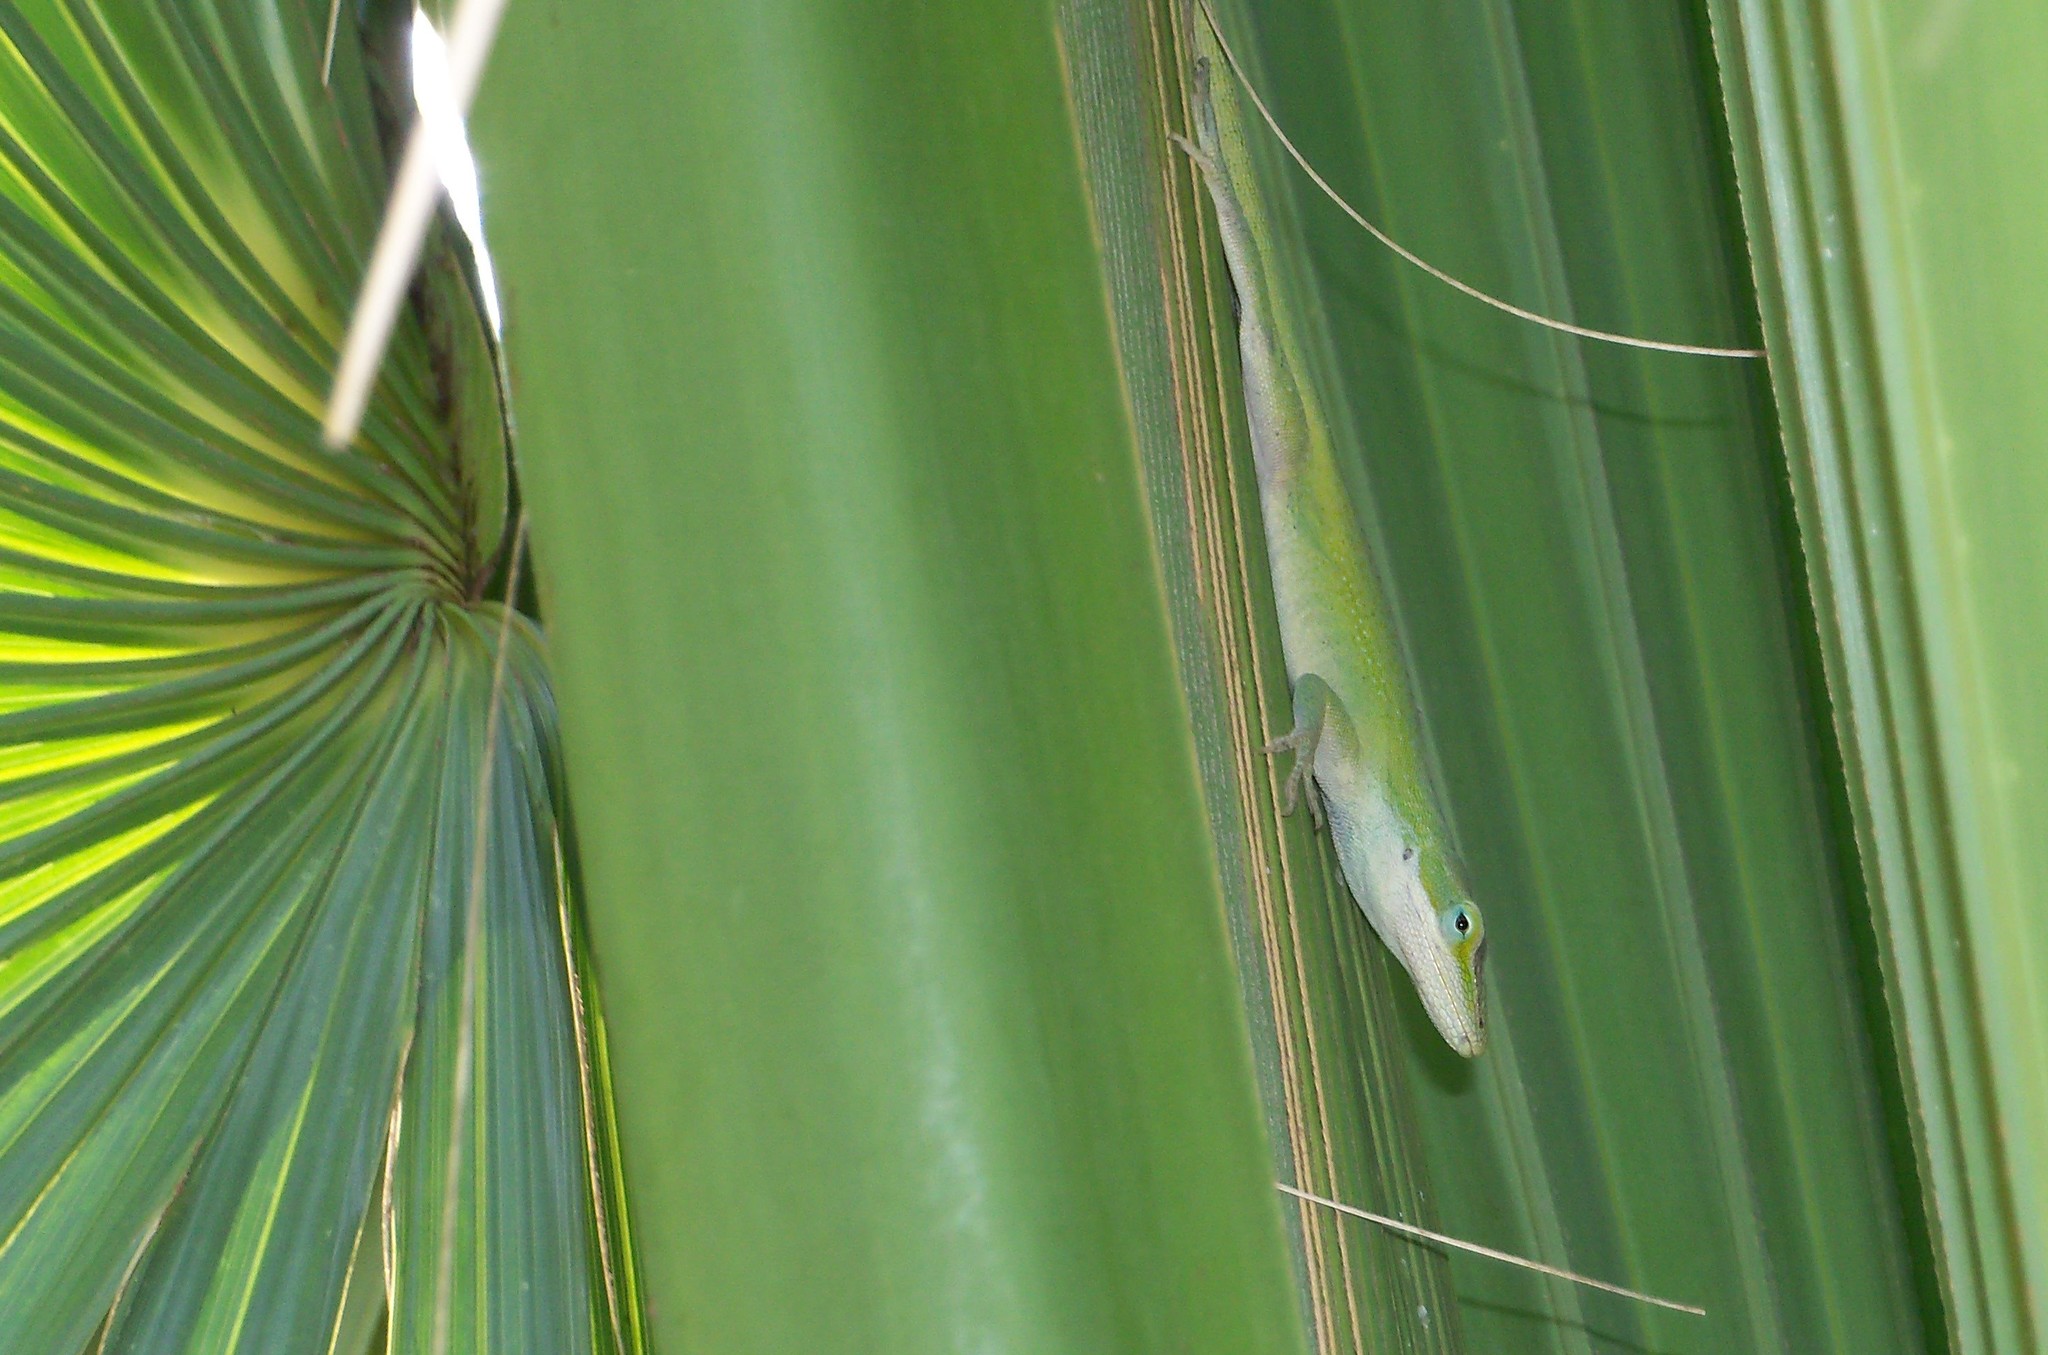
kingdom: Animalia
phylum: Chordata
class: Squamata
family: Dactyloidae
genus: Anolis
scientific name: Anolis carolinensis
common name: Green anole
